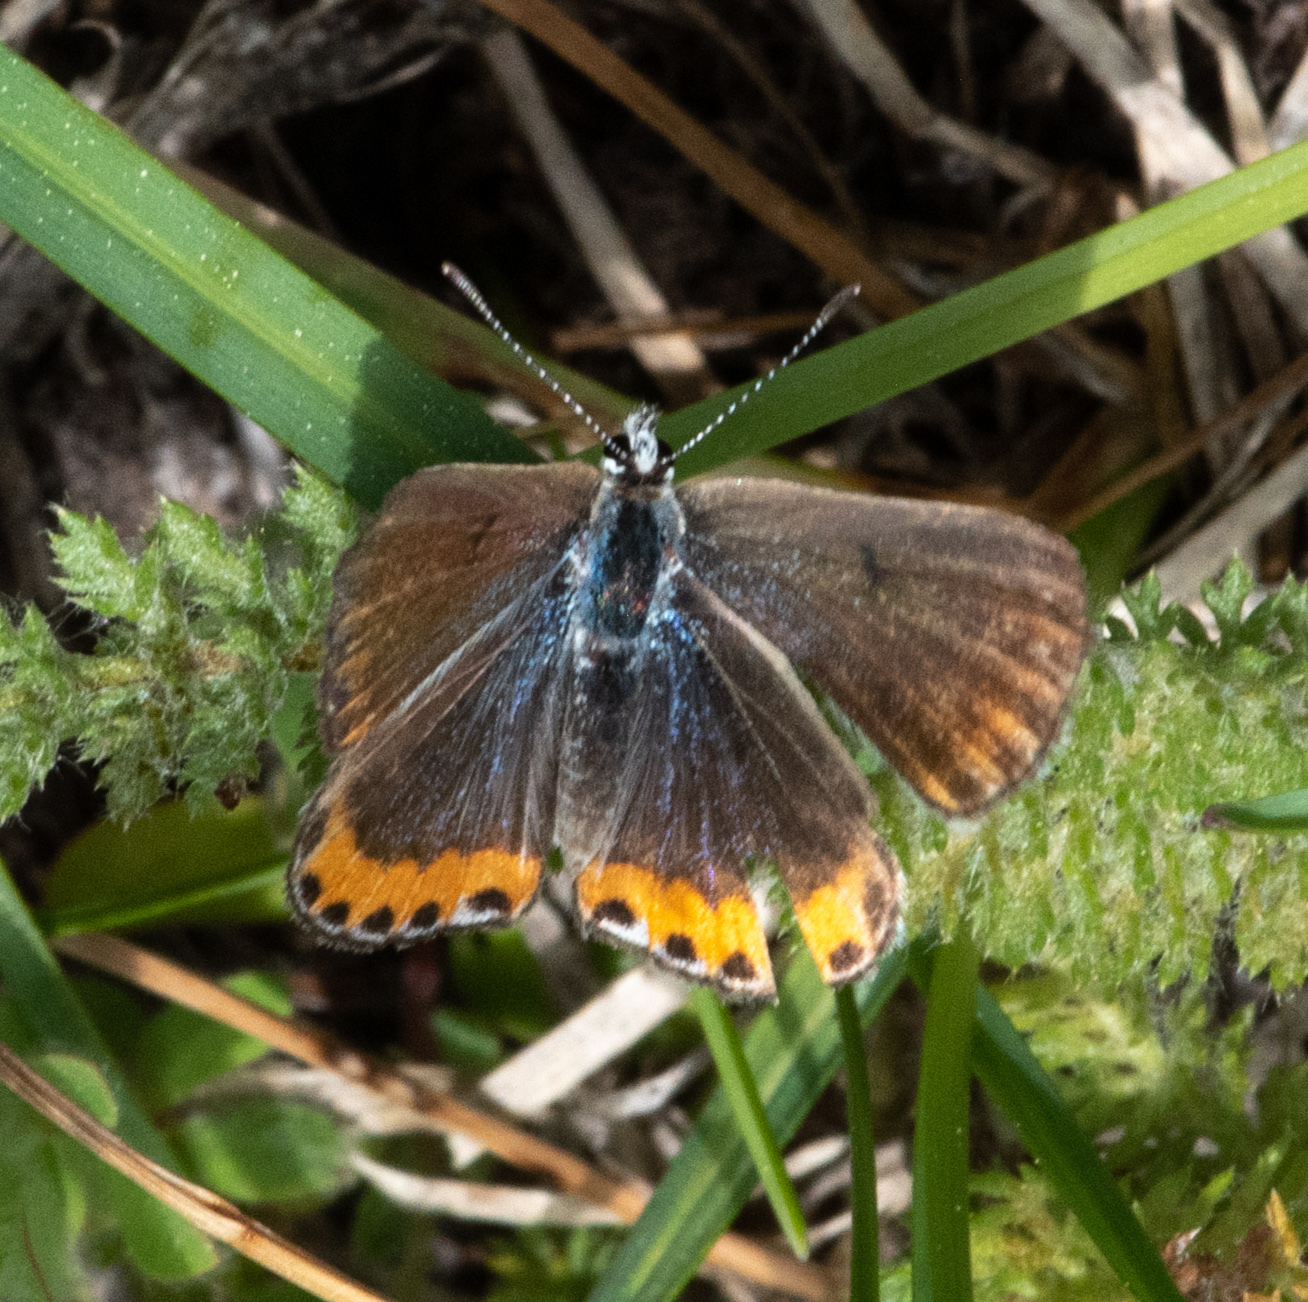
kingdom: Animalia
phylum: Arthropoda
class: Insecta
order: Lepidoptera
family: Lycaenidae
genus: Icaricia
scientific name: Icaricia acmon
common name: Acmon blue
